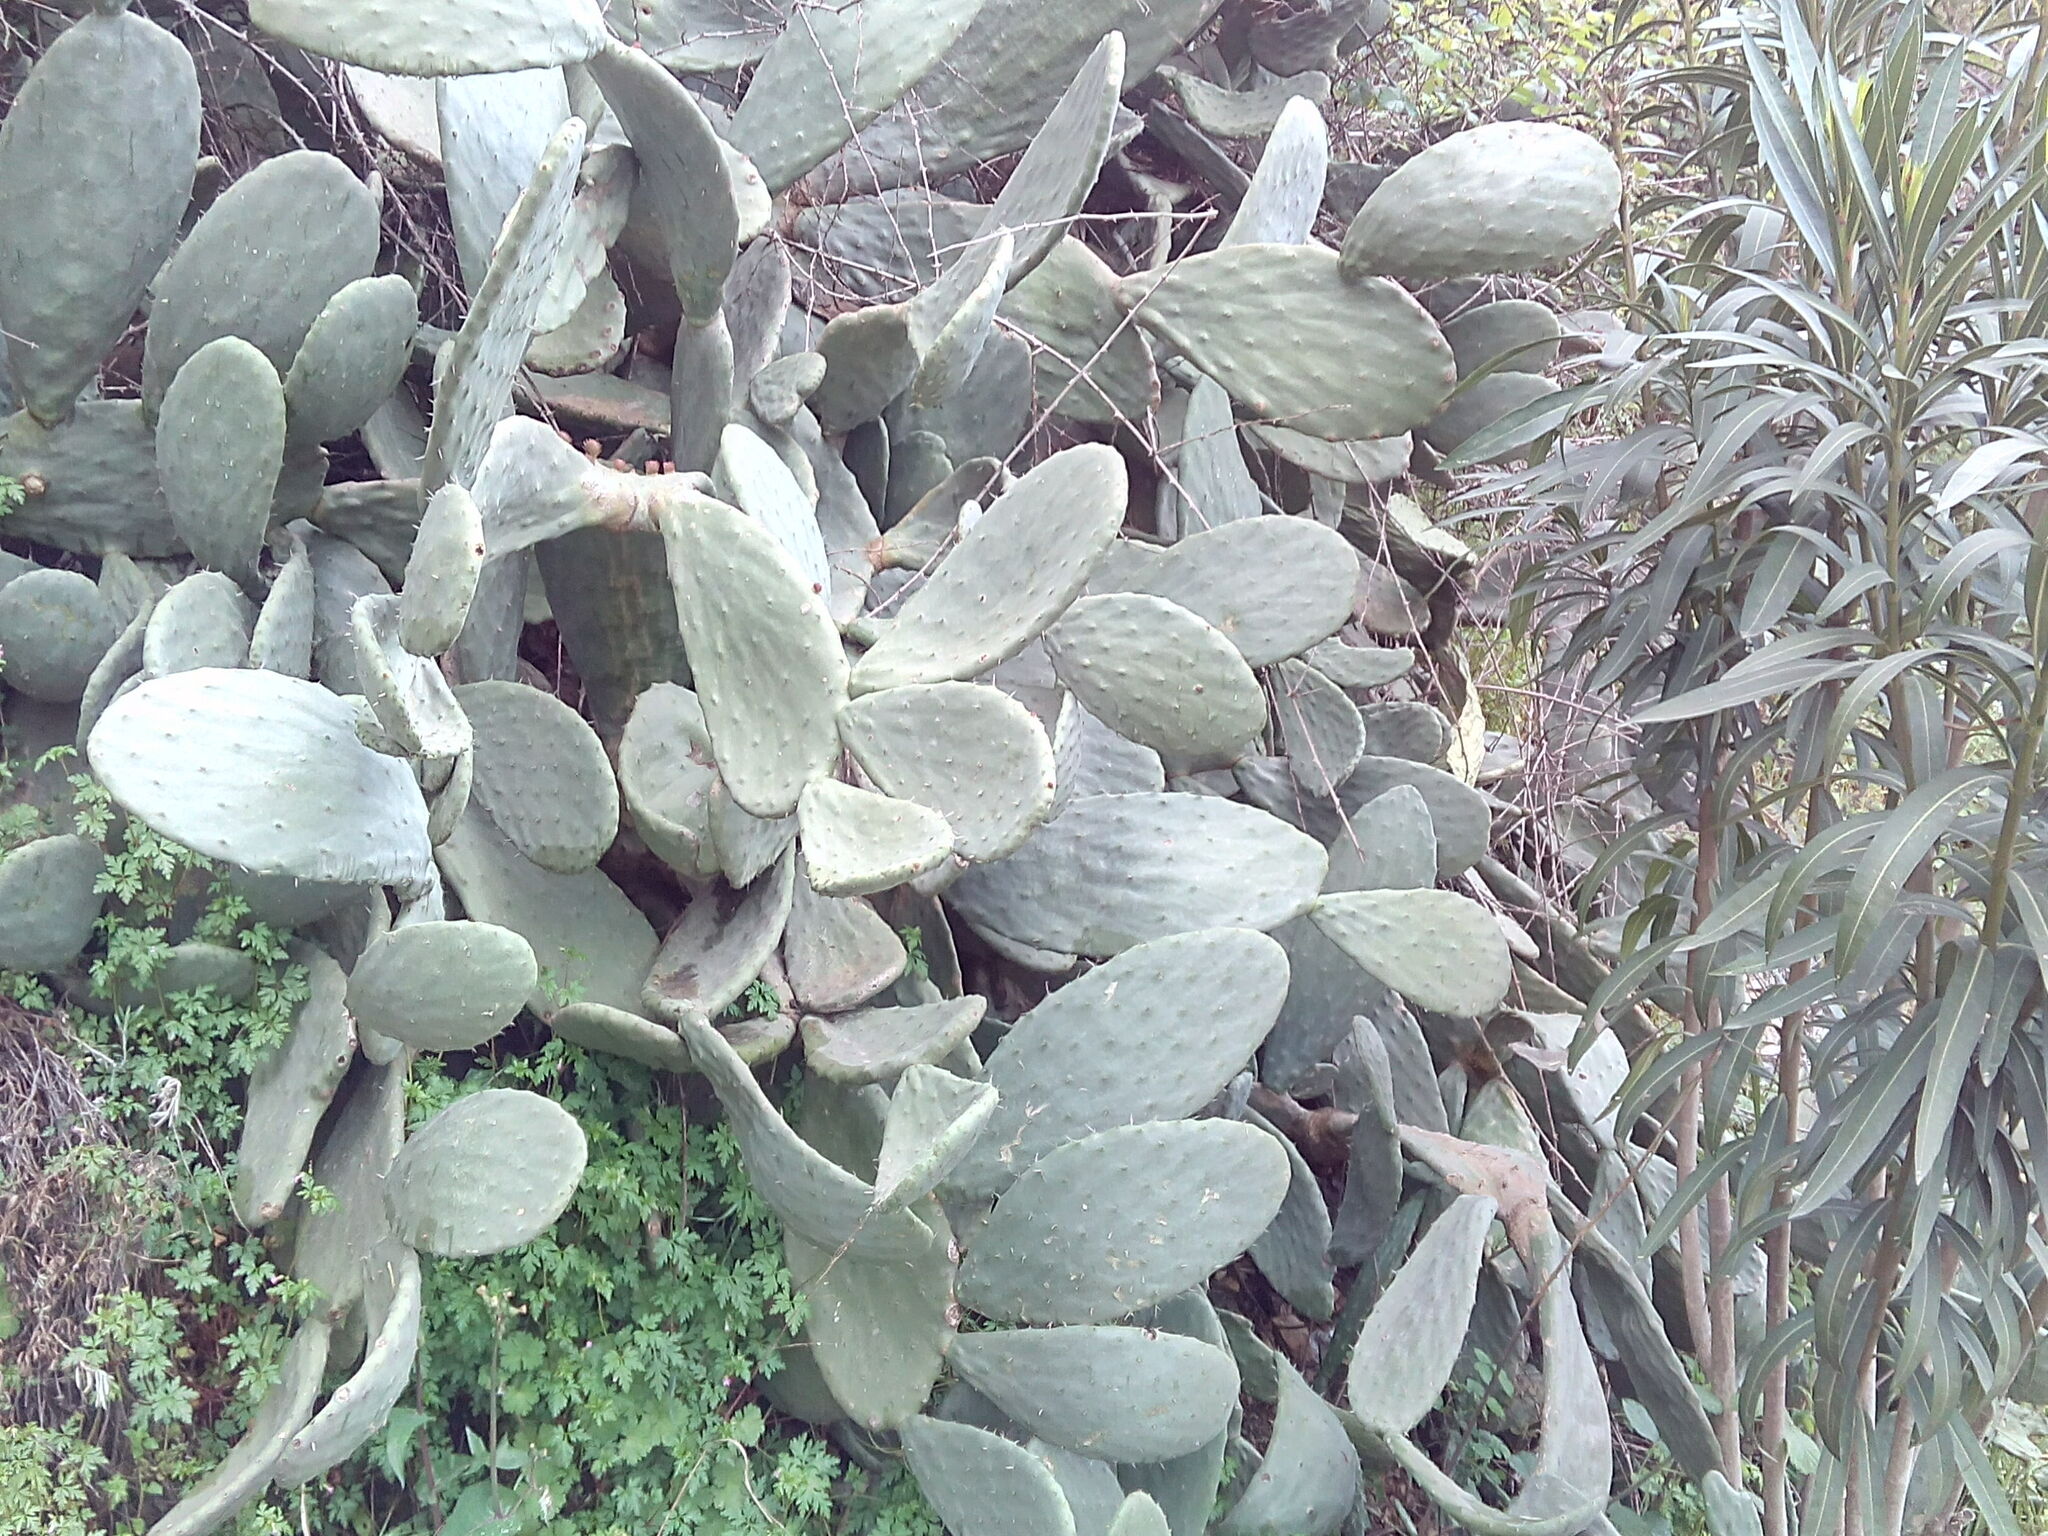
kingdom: Plantae
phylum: Tracheophyta
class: Magnoliopsida
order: Caryophyllales
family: Cactaceae
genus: Opuntia
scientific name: Opuntia ficus-indica
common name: Barbary fig
